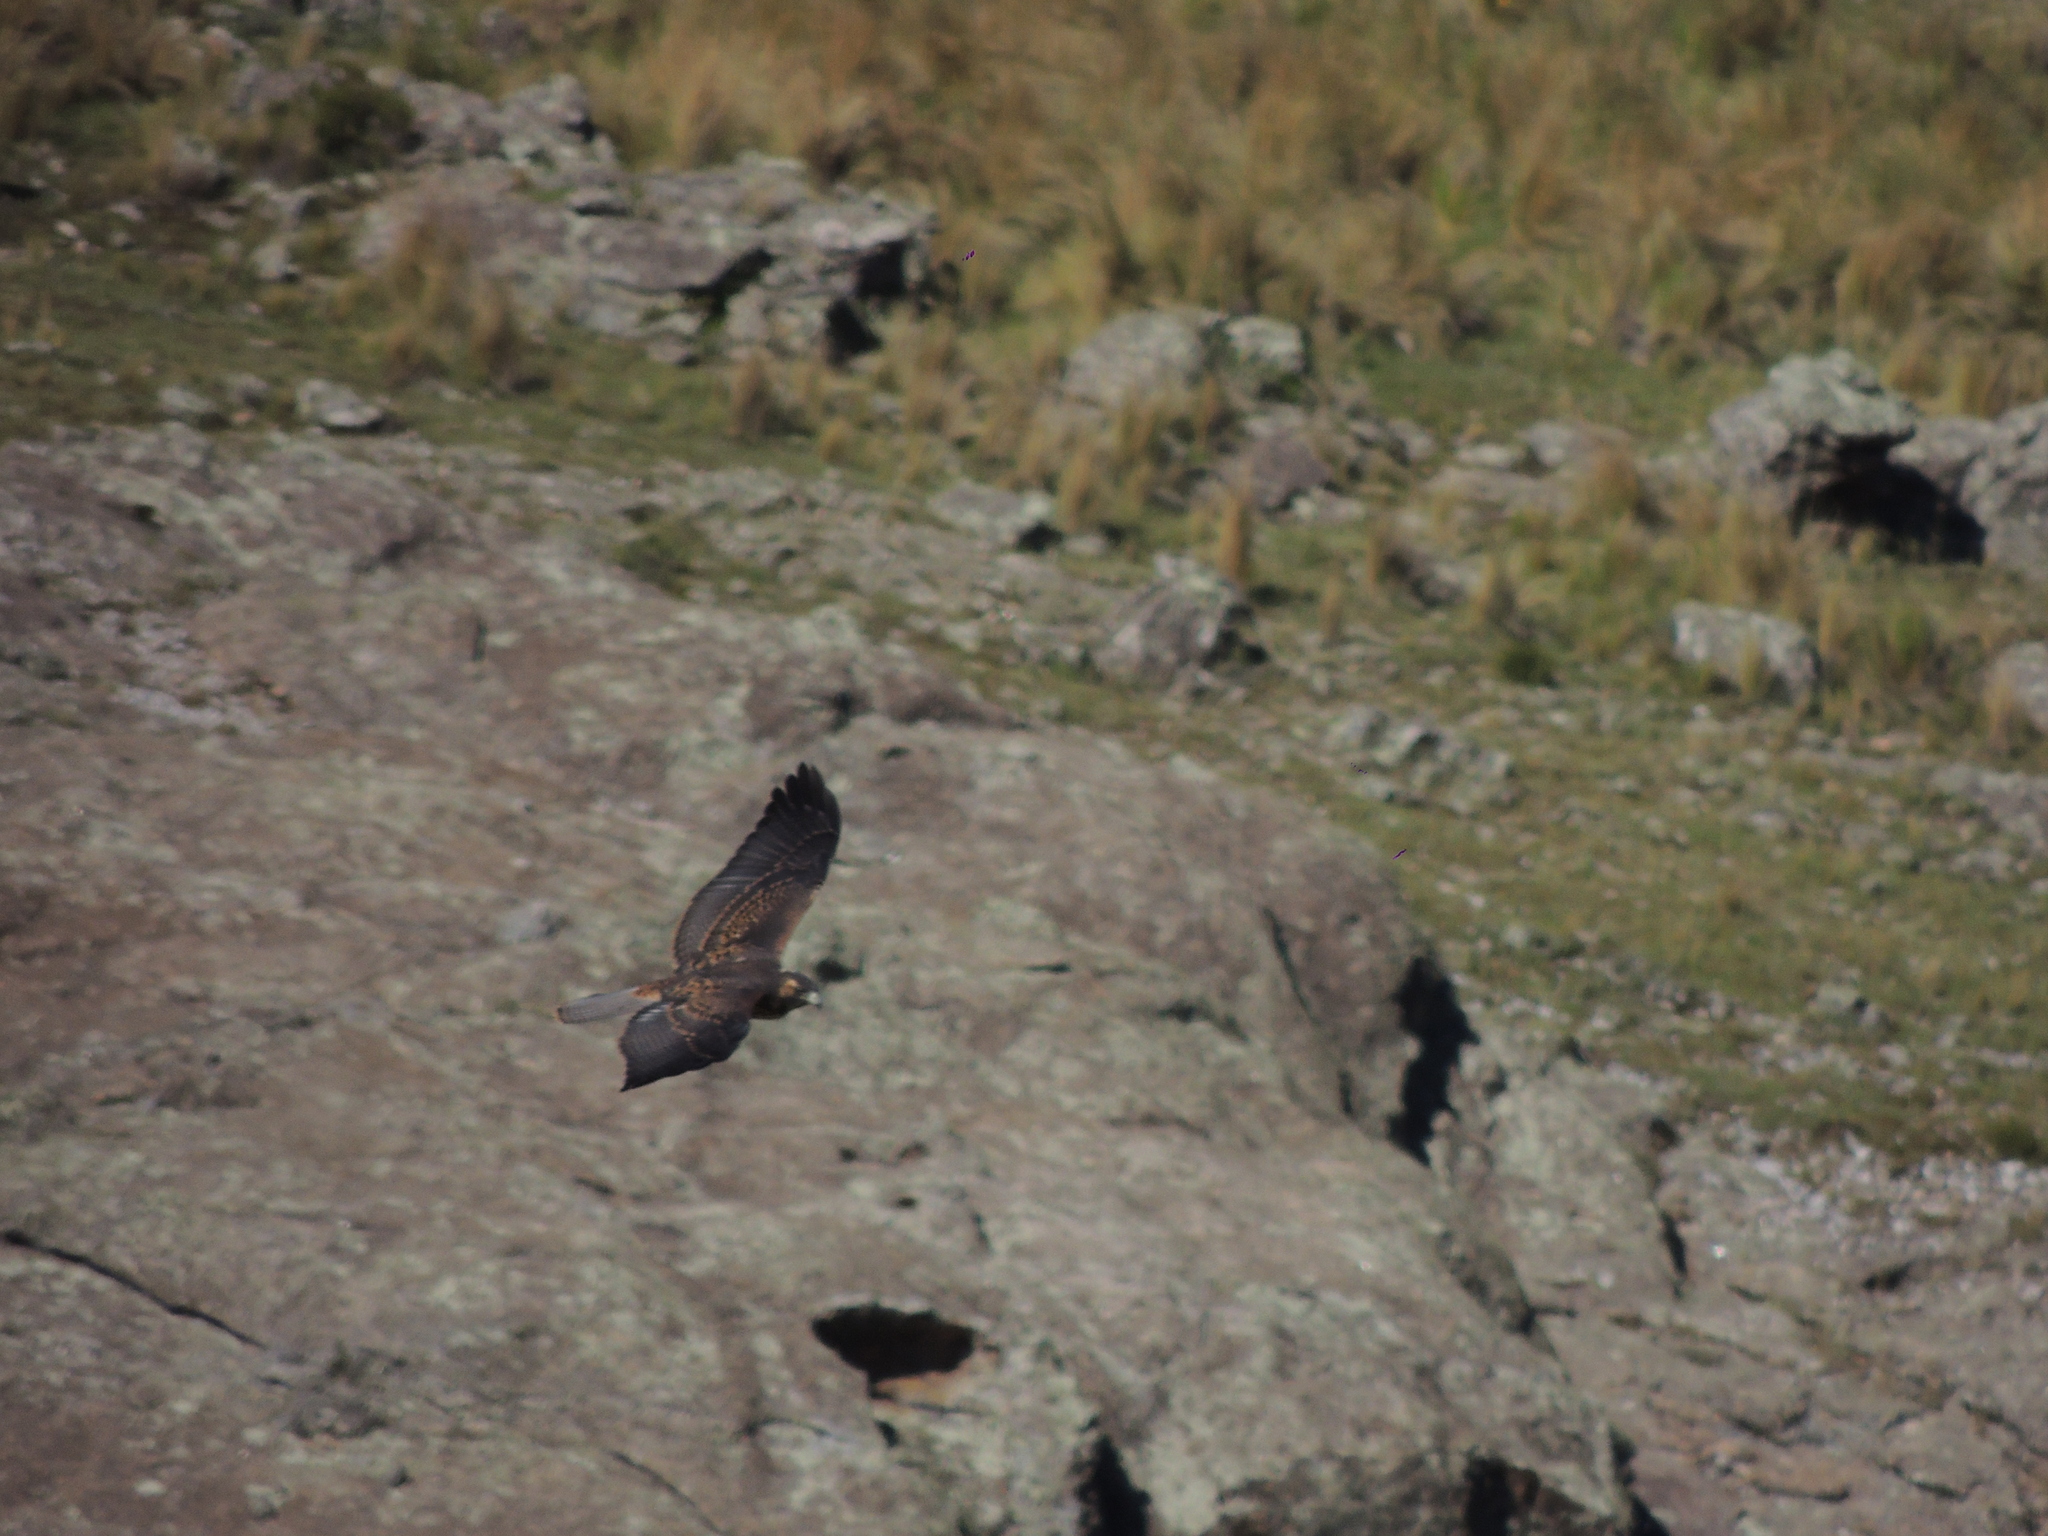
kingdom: Animalia
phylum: Chordata
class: Aves
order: Accipitriformes
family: Accipitridae
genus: Buteo
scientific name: Buteo polyosoma
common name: Variable hawk
